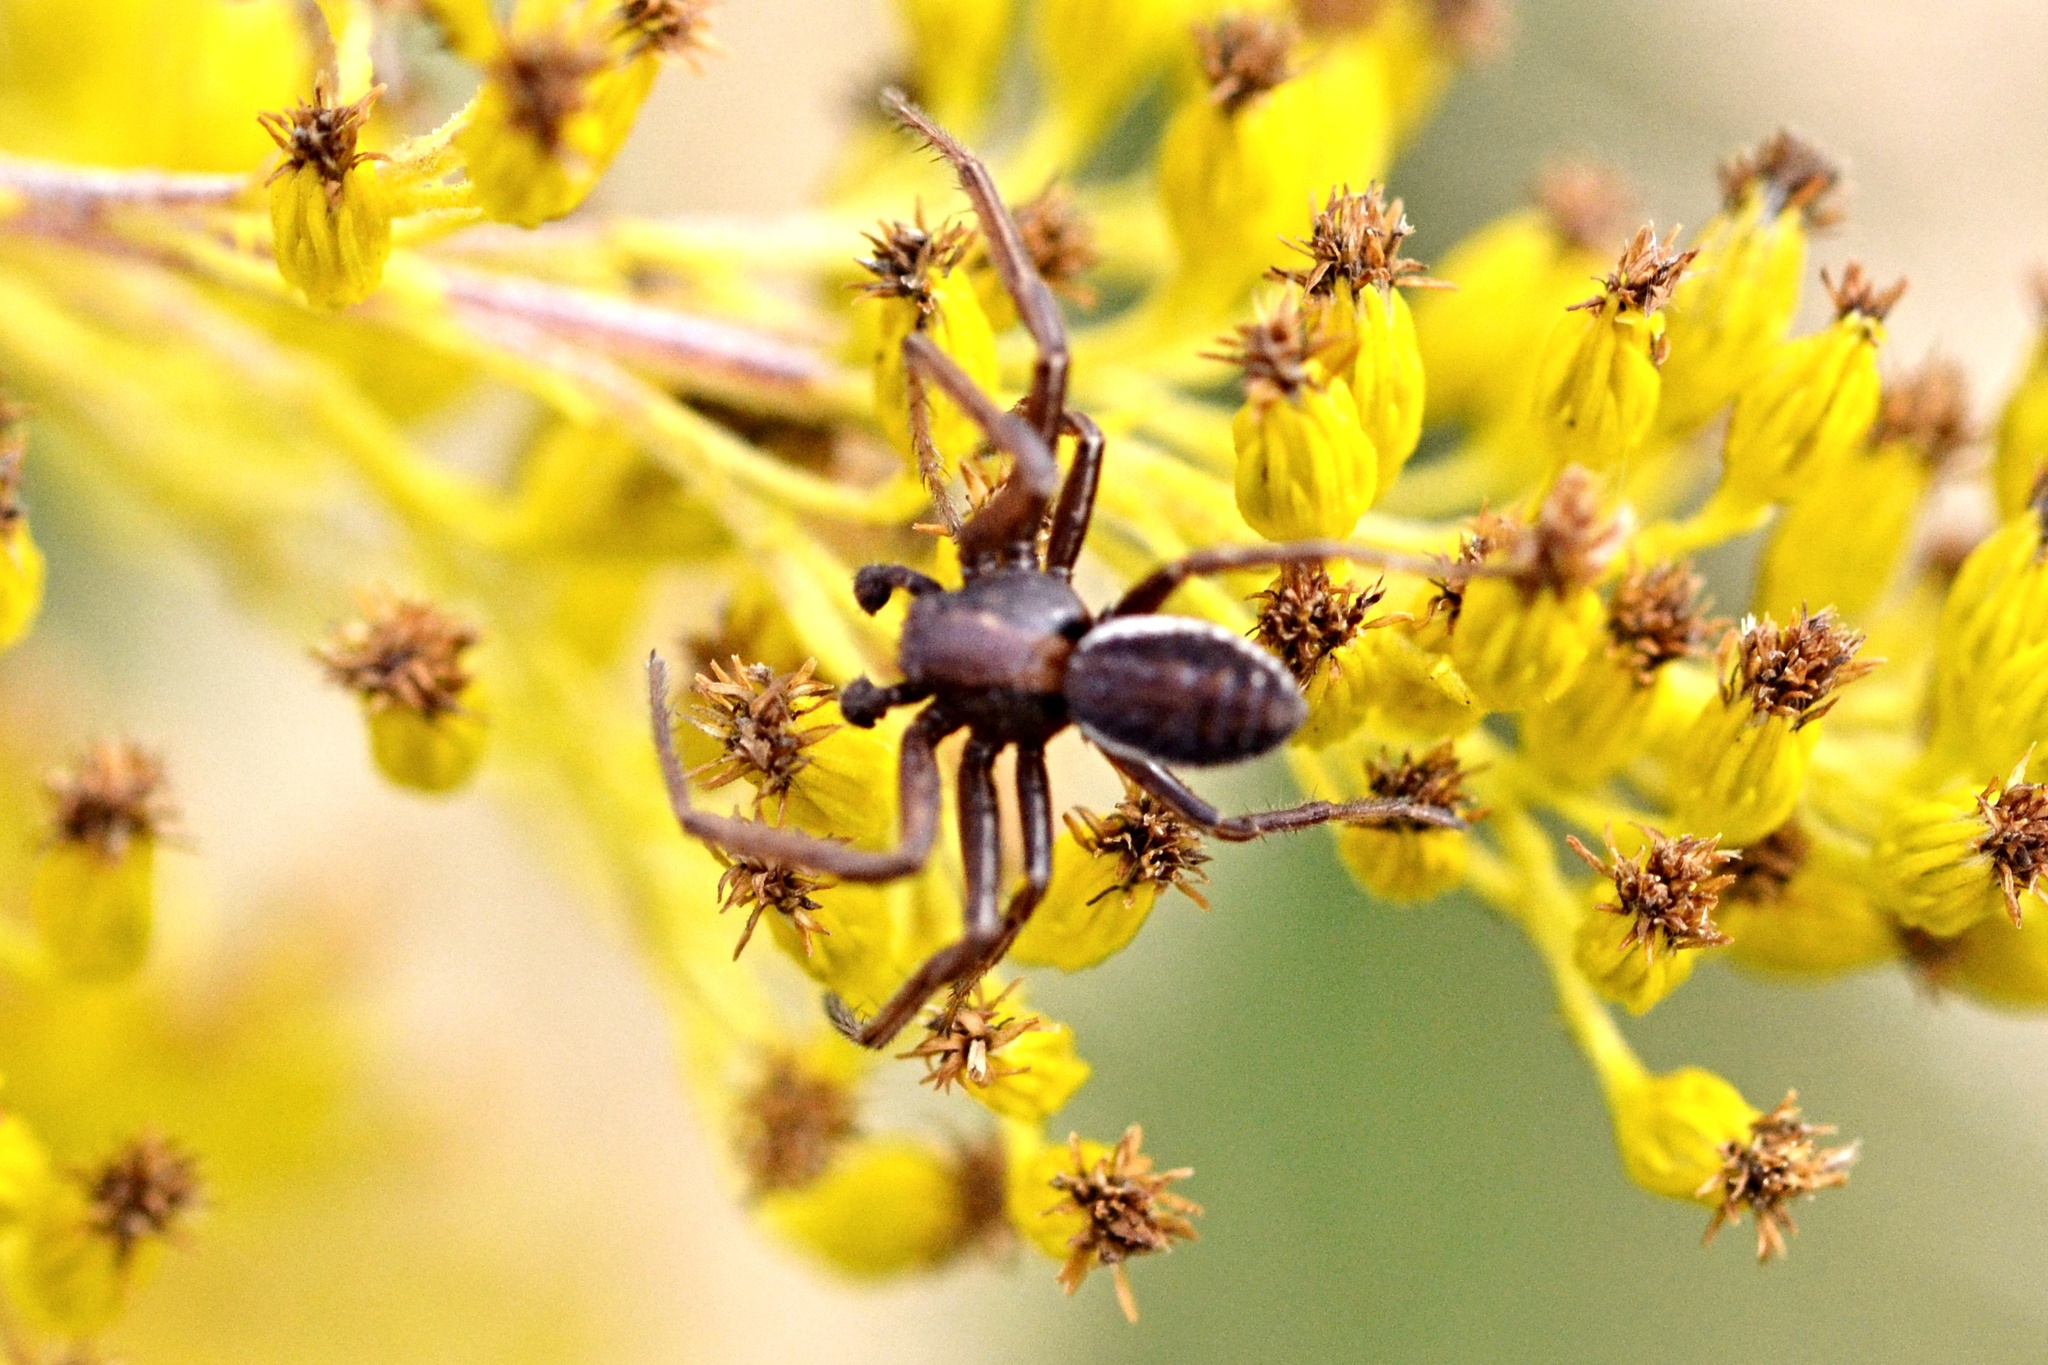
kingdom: Animalia
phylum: Arthropoda
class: Arachnida
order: Araneae
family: Thomisidae
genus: Spiracme
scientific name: Spiracme striatipes
